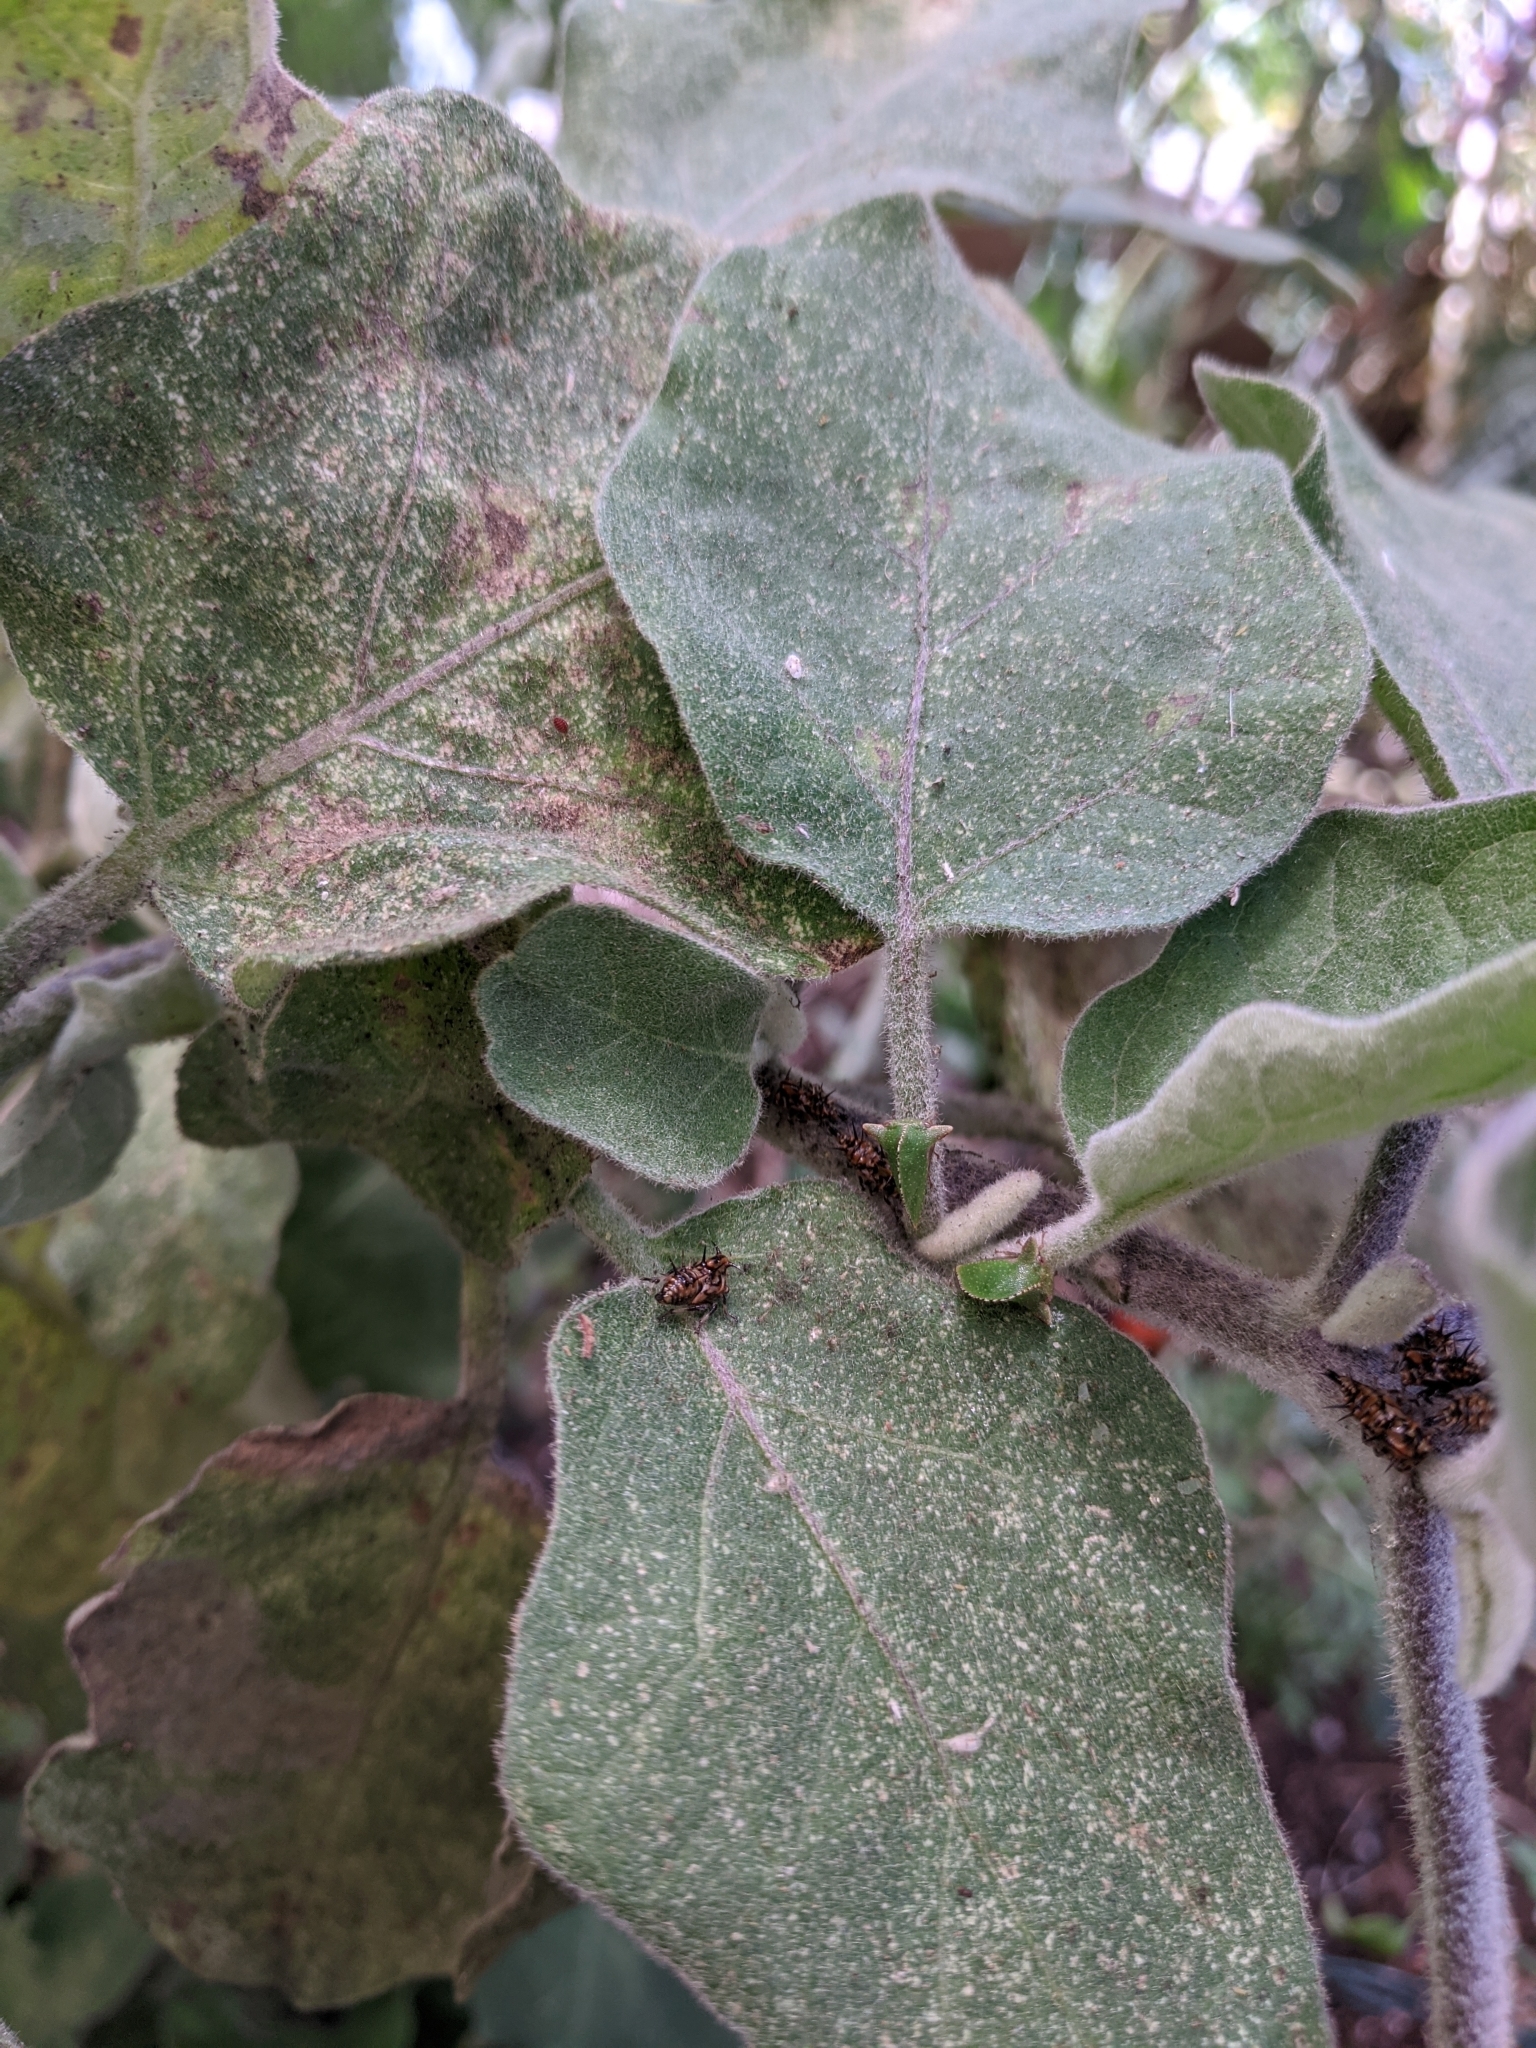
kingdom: Animalia
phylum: Arthropoda
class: Insecta
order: Hemiptera
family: Membracidae
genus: Antianthe
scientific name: Antianthe expansa
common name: Keeled tree hopper
